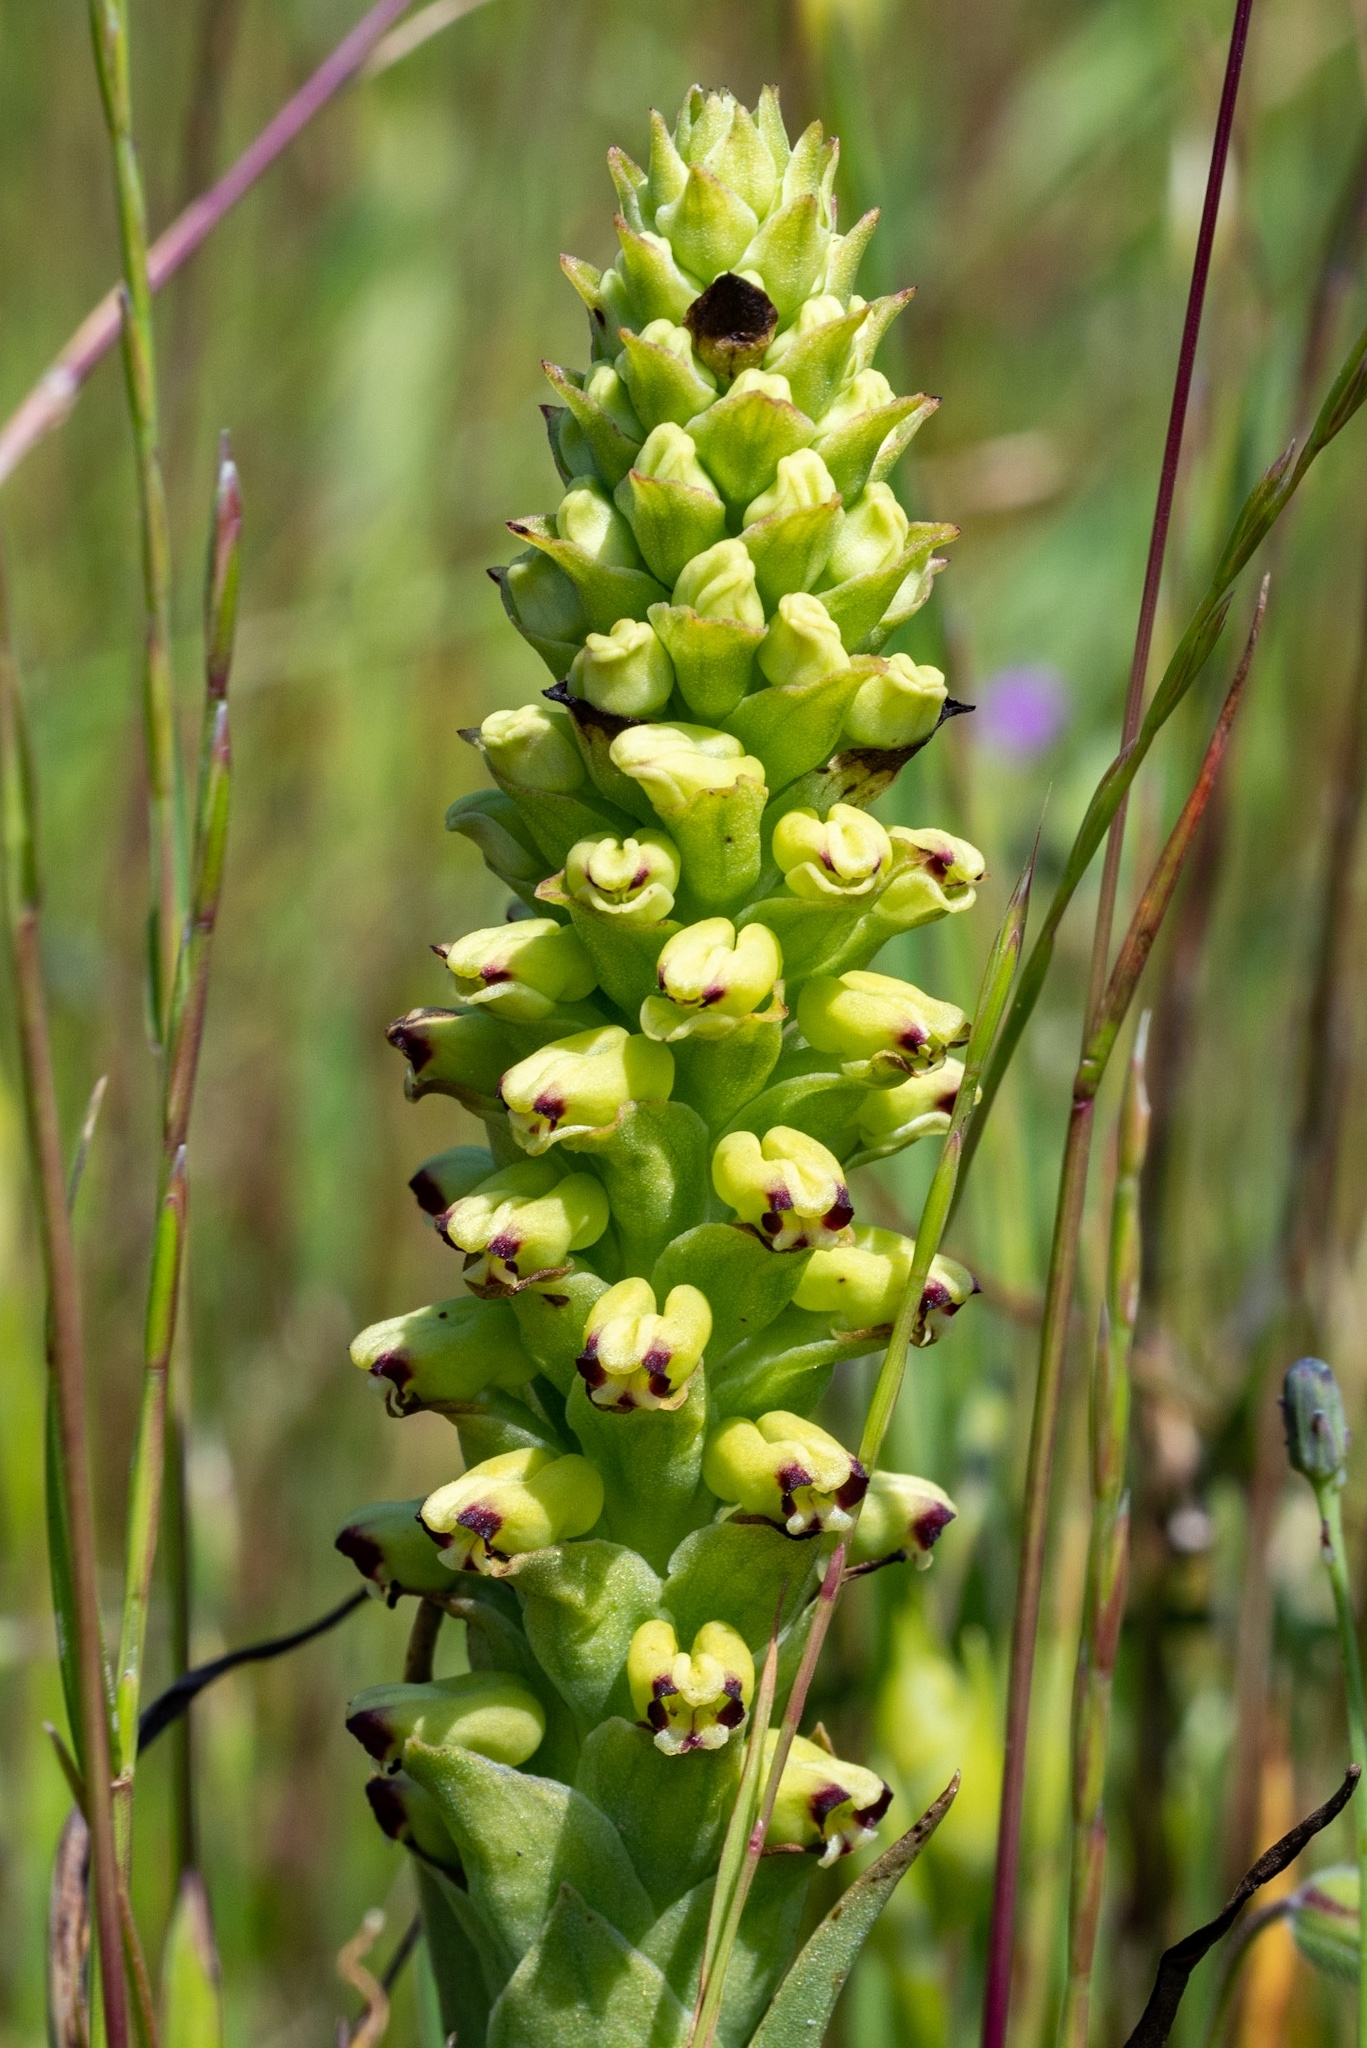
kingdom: Plantae
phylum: Tracheophyta
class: Liliopsida
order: Asparagales
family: Orchidaceae
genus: Corycium
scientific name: Corycium orobanchoides
